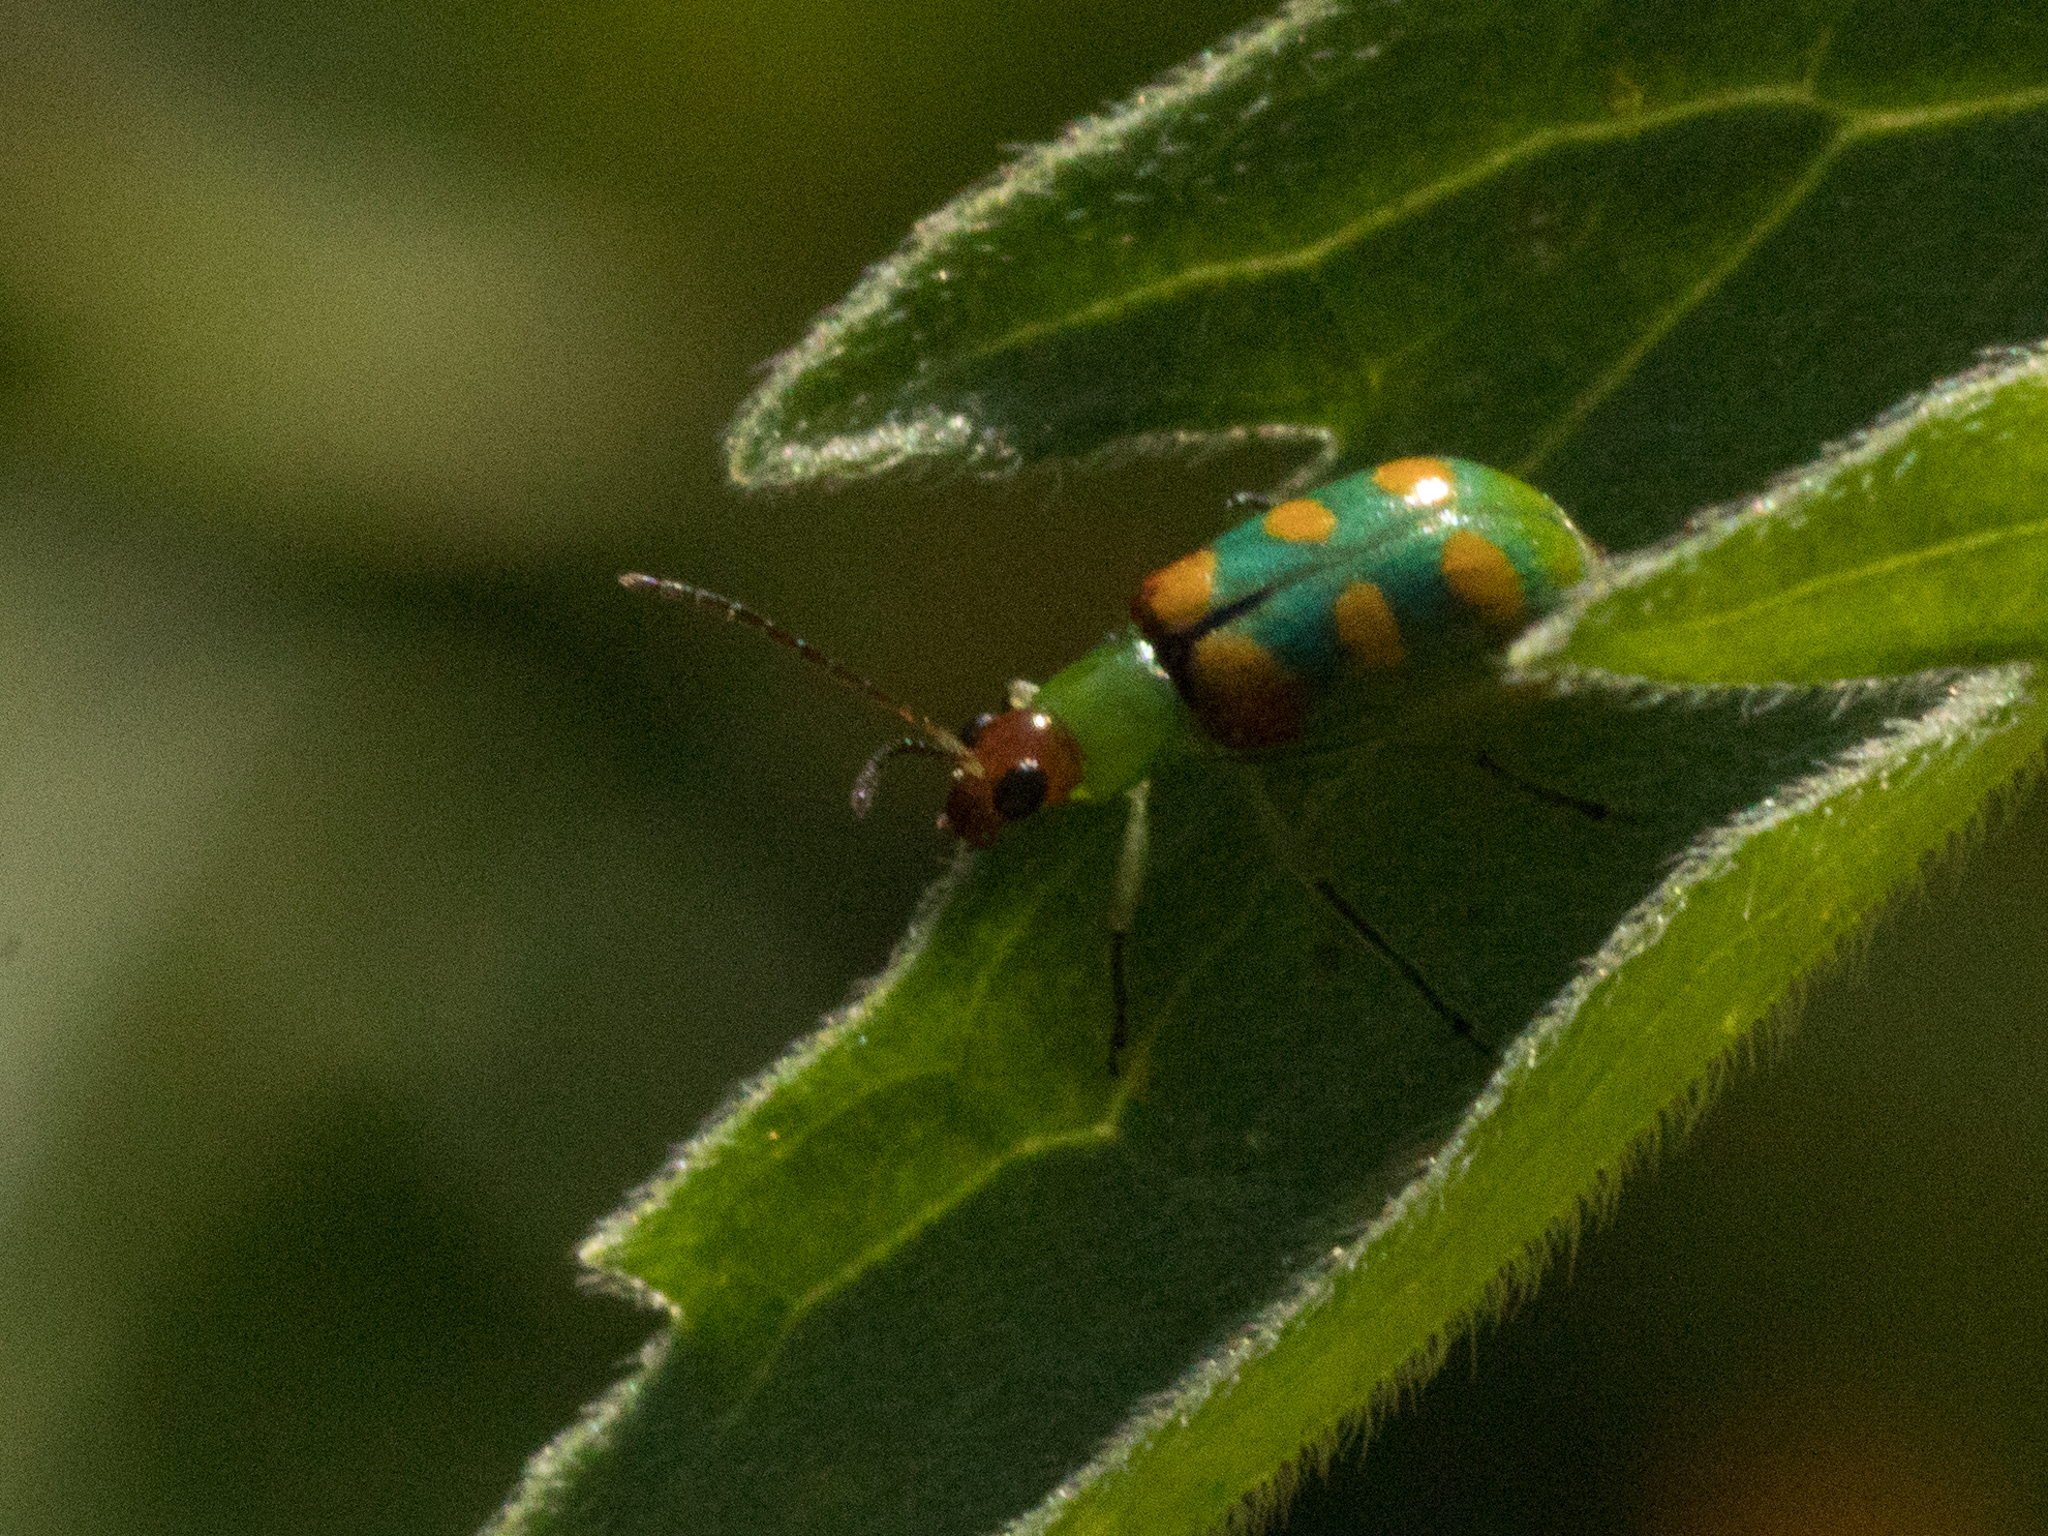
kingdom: Animalia
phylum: Arthropoda
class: Insecta
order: Coleoptera
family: Chrysomelidae
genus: Diabrotica
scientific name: Diabrotica speciosa
